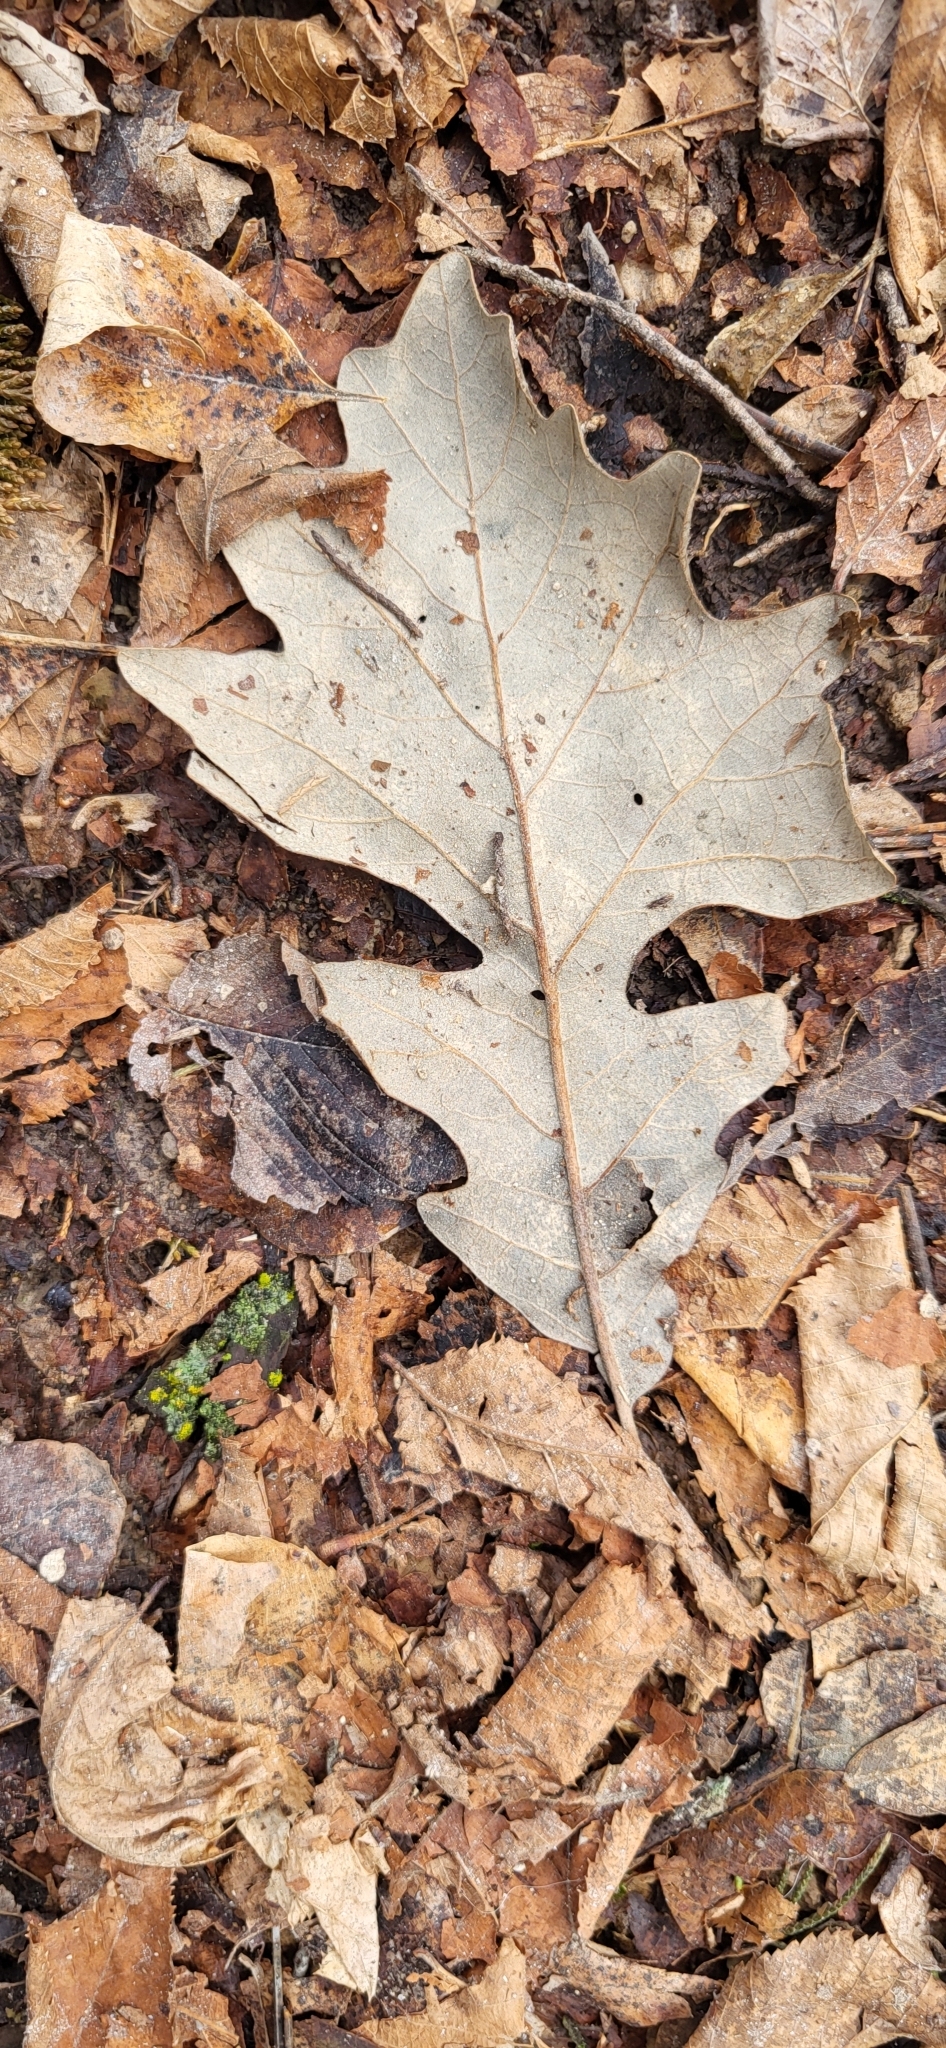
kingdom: Plantae
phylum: Tracheophyta
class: Magnoliopsida
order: Fagales
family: Fagaceae
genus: Quercus
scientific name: Quercus macrocarpa
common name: Bur oak
